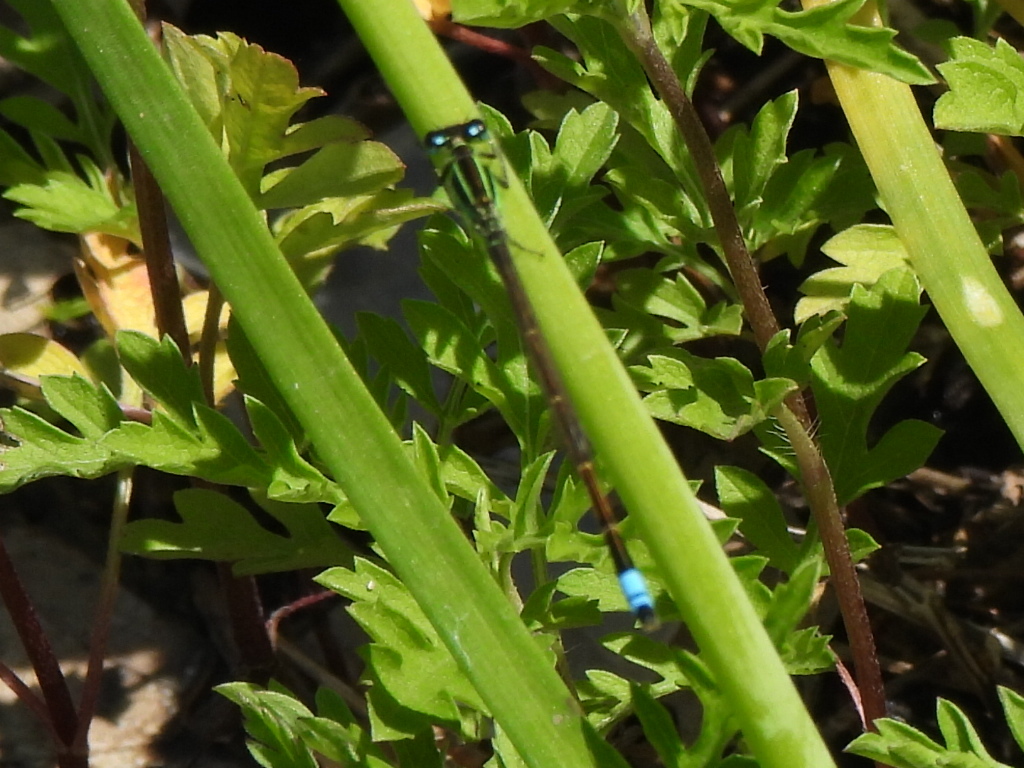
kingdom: Animalia
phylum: Arthropoda
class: Insecta
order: Odonata
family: Coenagrionidae
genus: Ischnura
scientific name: Ischnura ramburii
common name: Rambur's forktail
